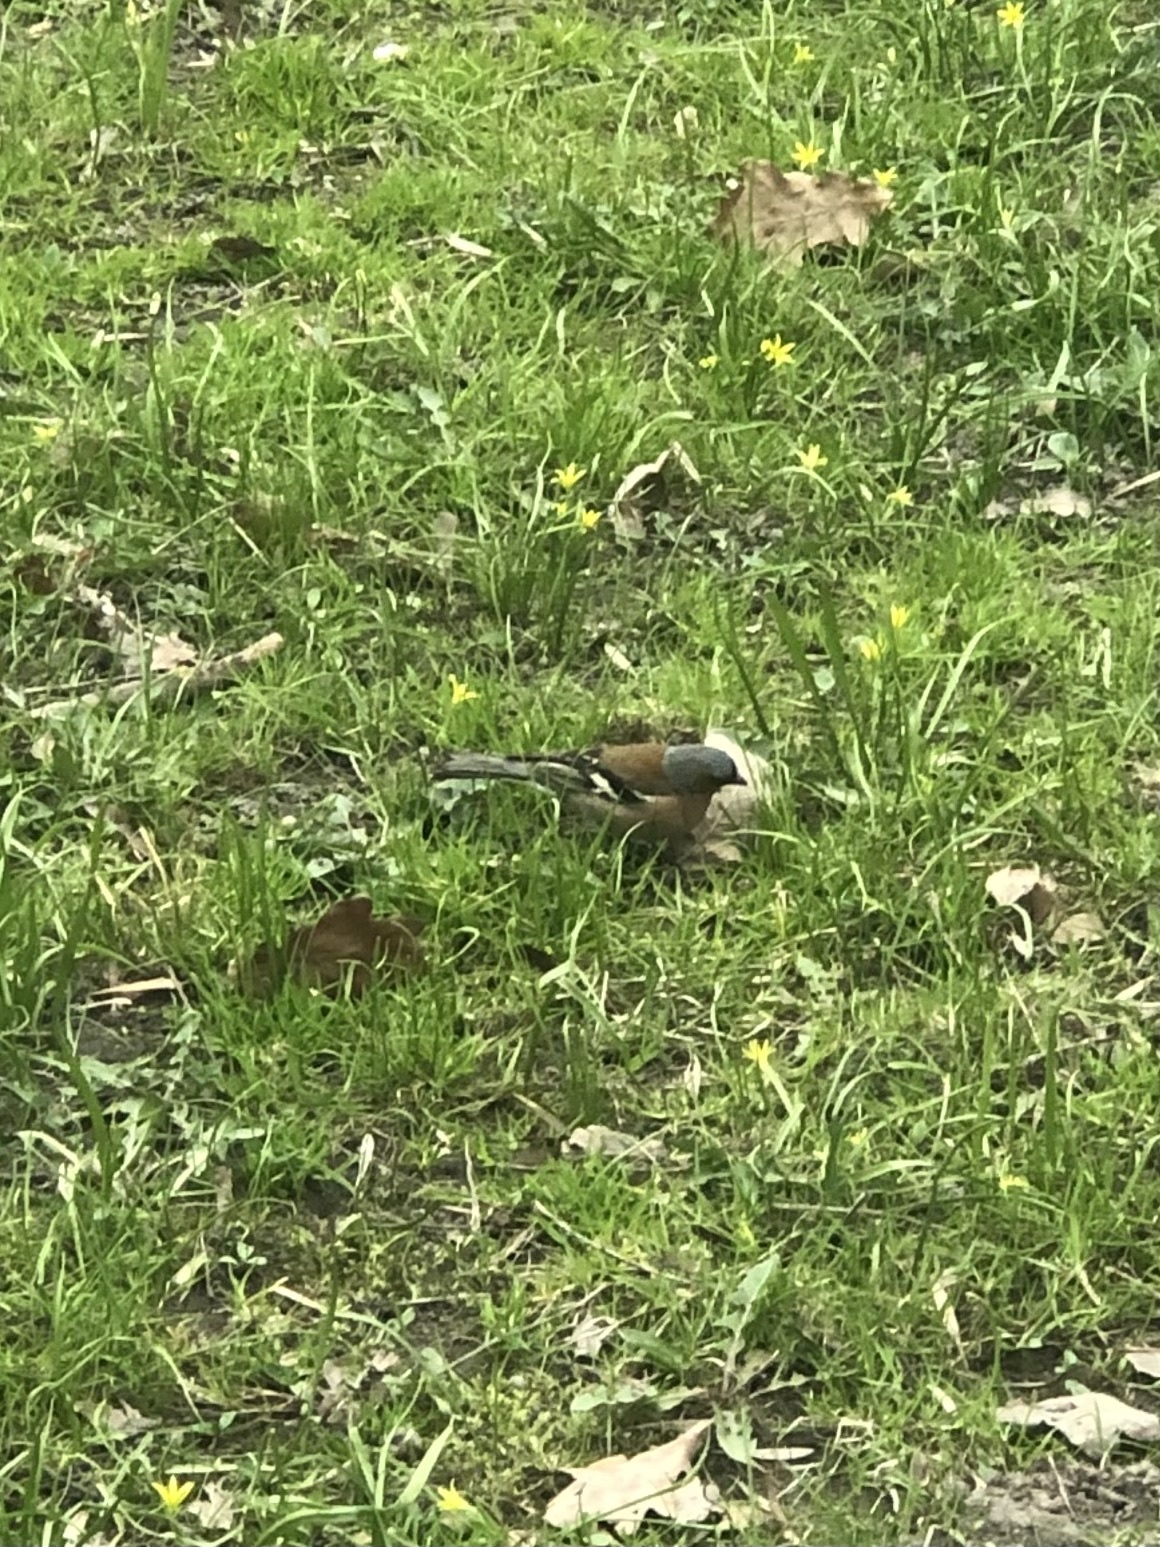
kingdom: Animalia
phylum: Chordata
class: Aves
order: Passeriformes
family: Fringillidae
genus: Fringilla
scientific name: Fringilla coelebs
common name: Common chaffinch
